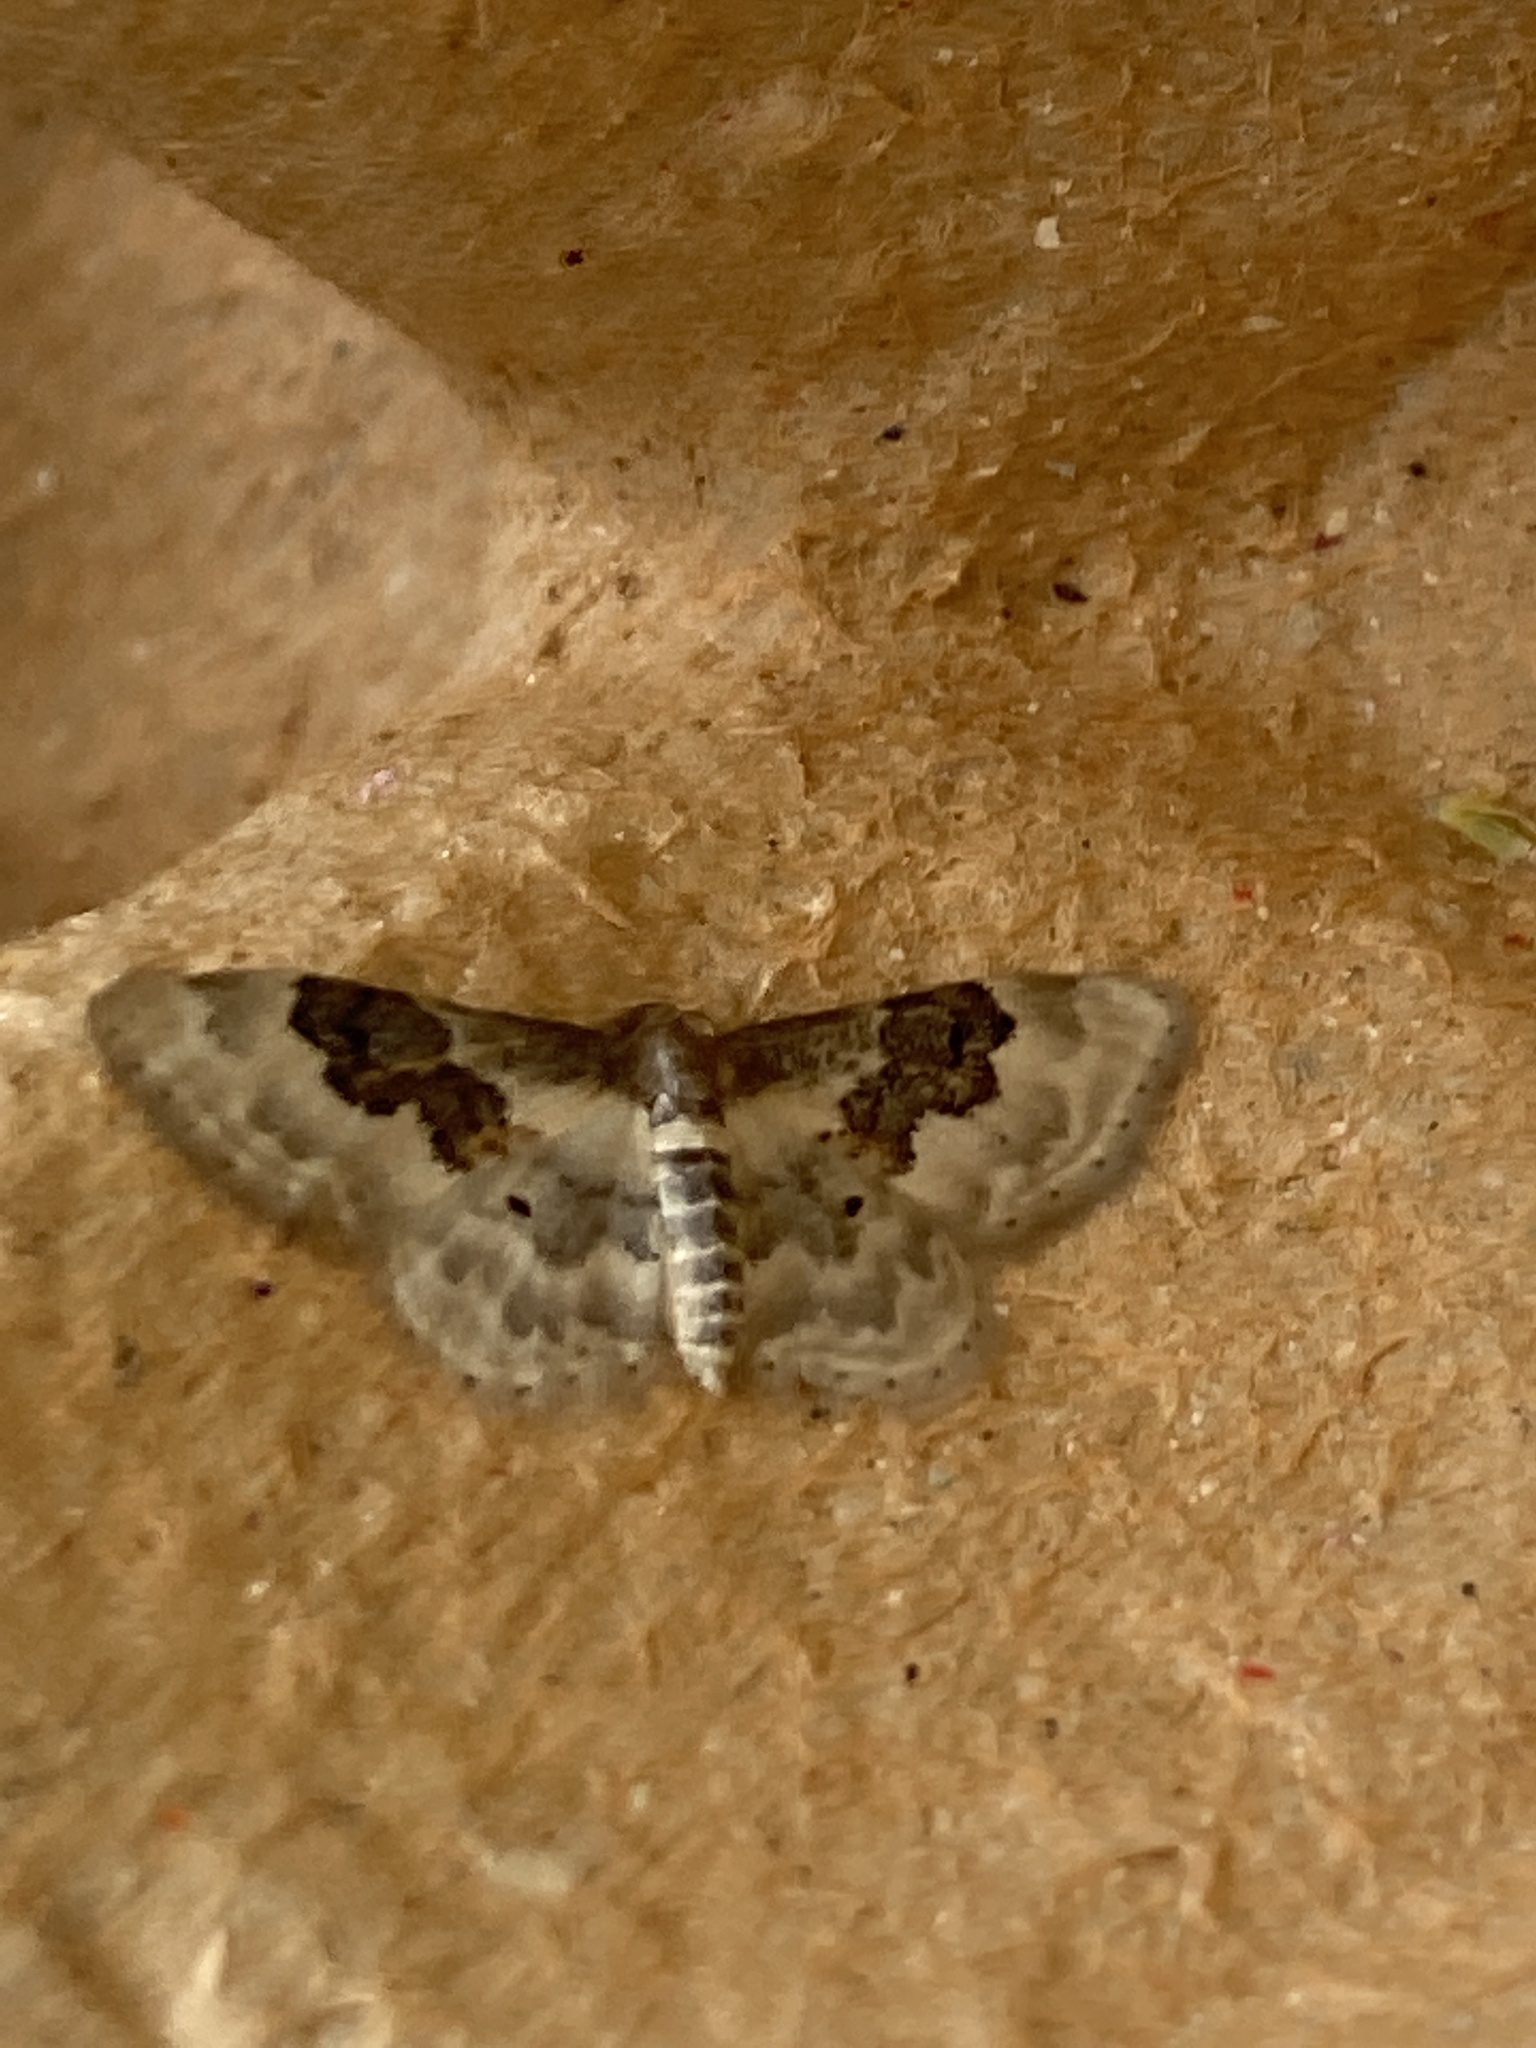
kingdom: Animalia
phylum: Arthropoda
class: Insecta
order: Lepidoptera
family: Geometridae
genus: Idaea
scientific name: Idaea rusticata
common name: Least carpet
